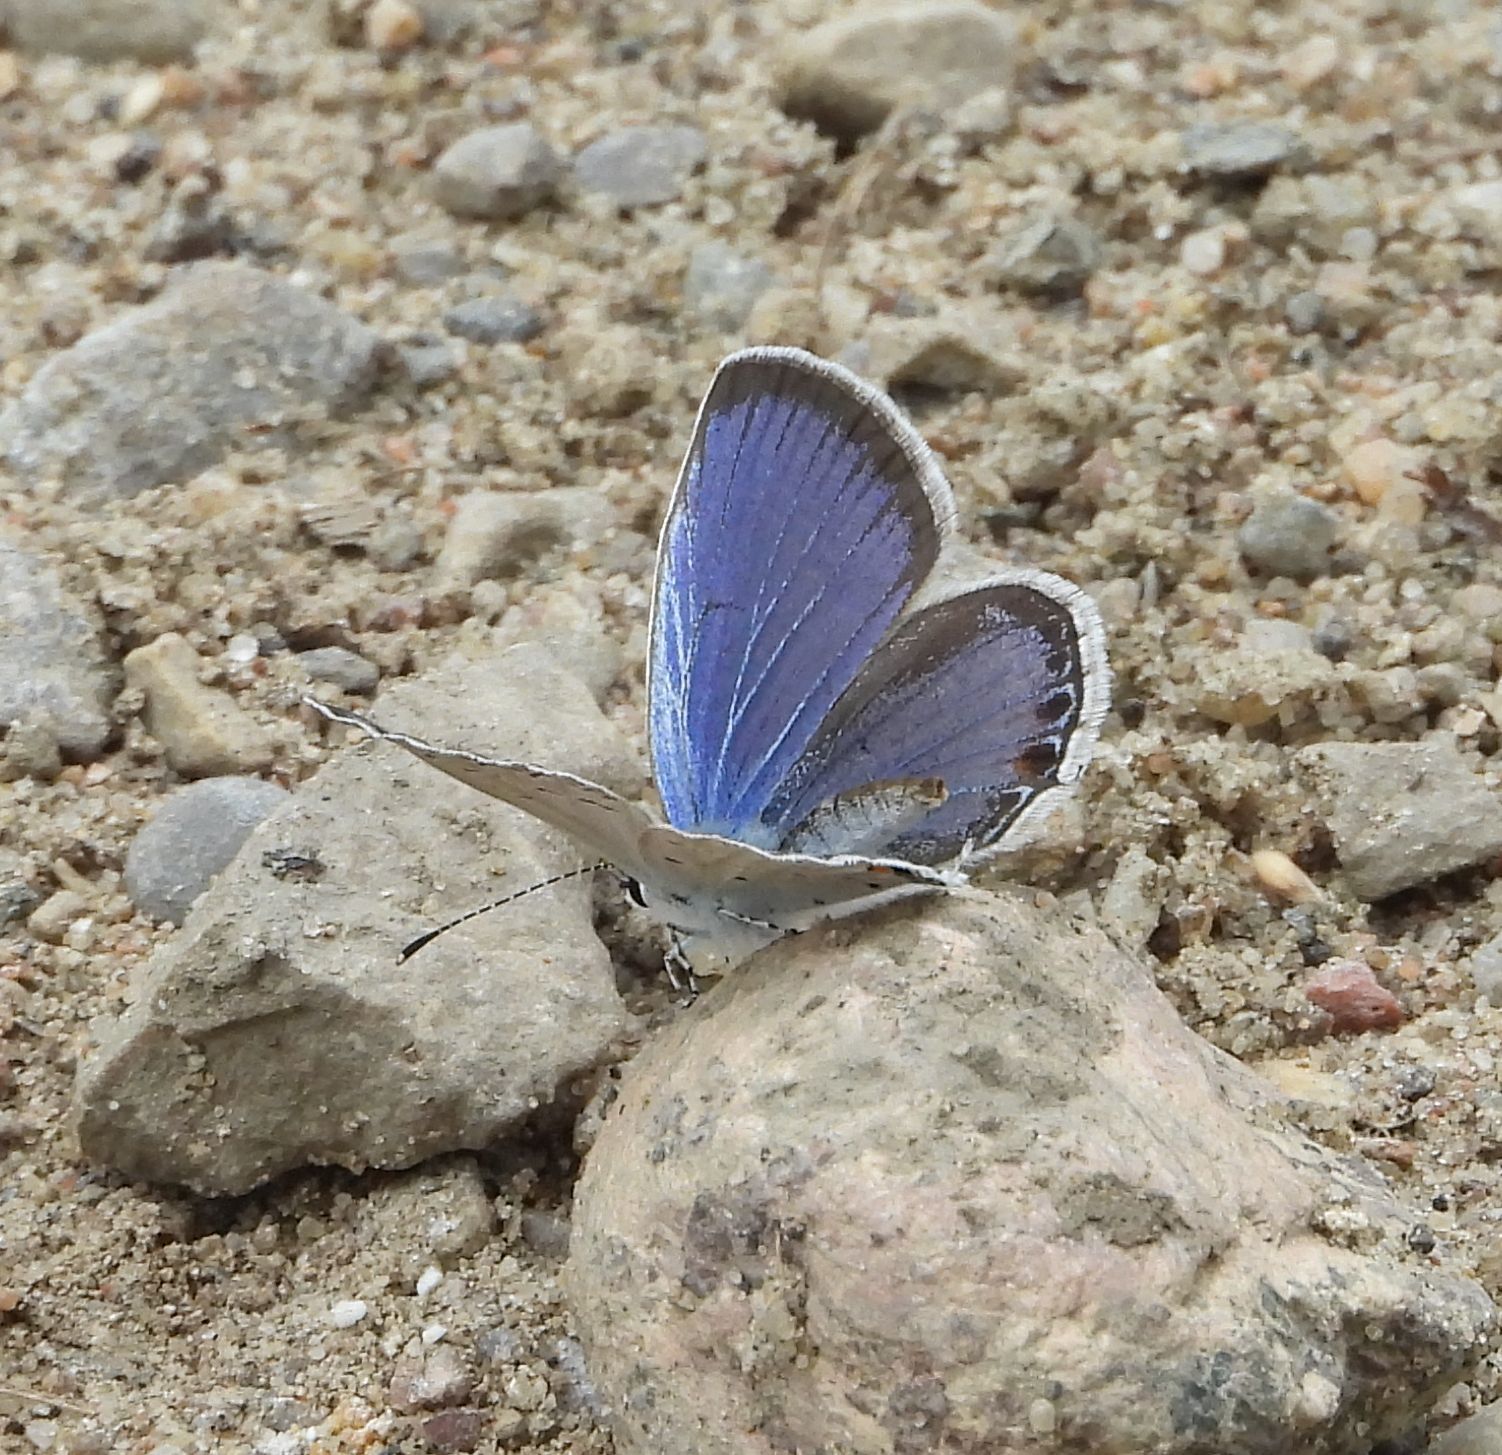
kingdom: Animalia
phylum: Arthropoda
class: Insecta
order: Lepidoptera
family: Lycaenidae
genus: Elkalyce
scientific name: Elkalyce comyntas
